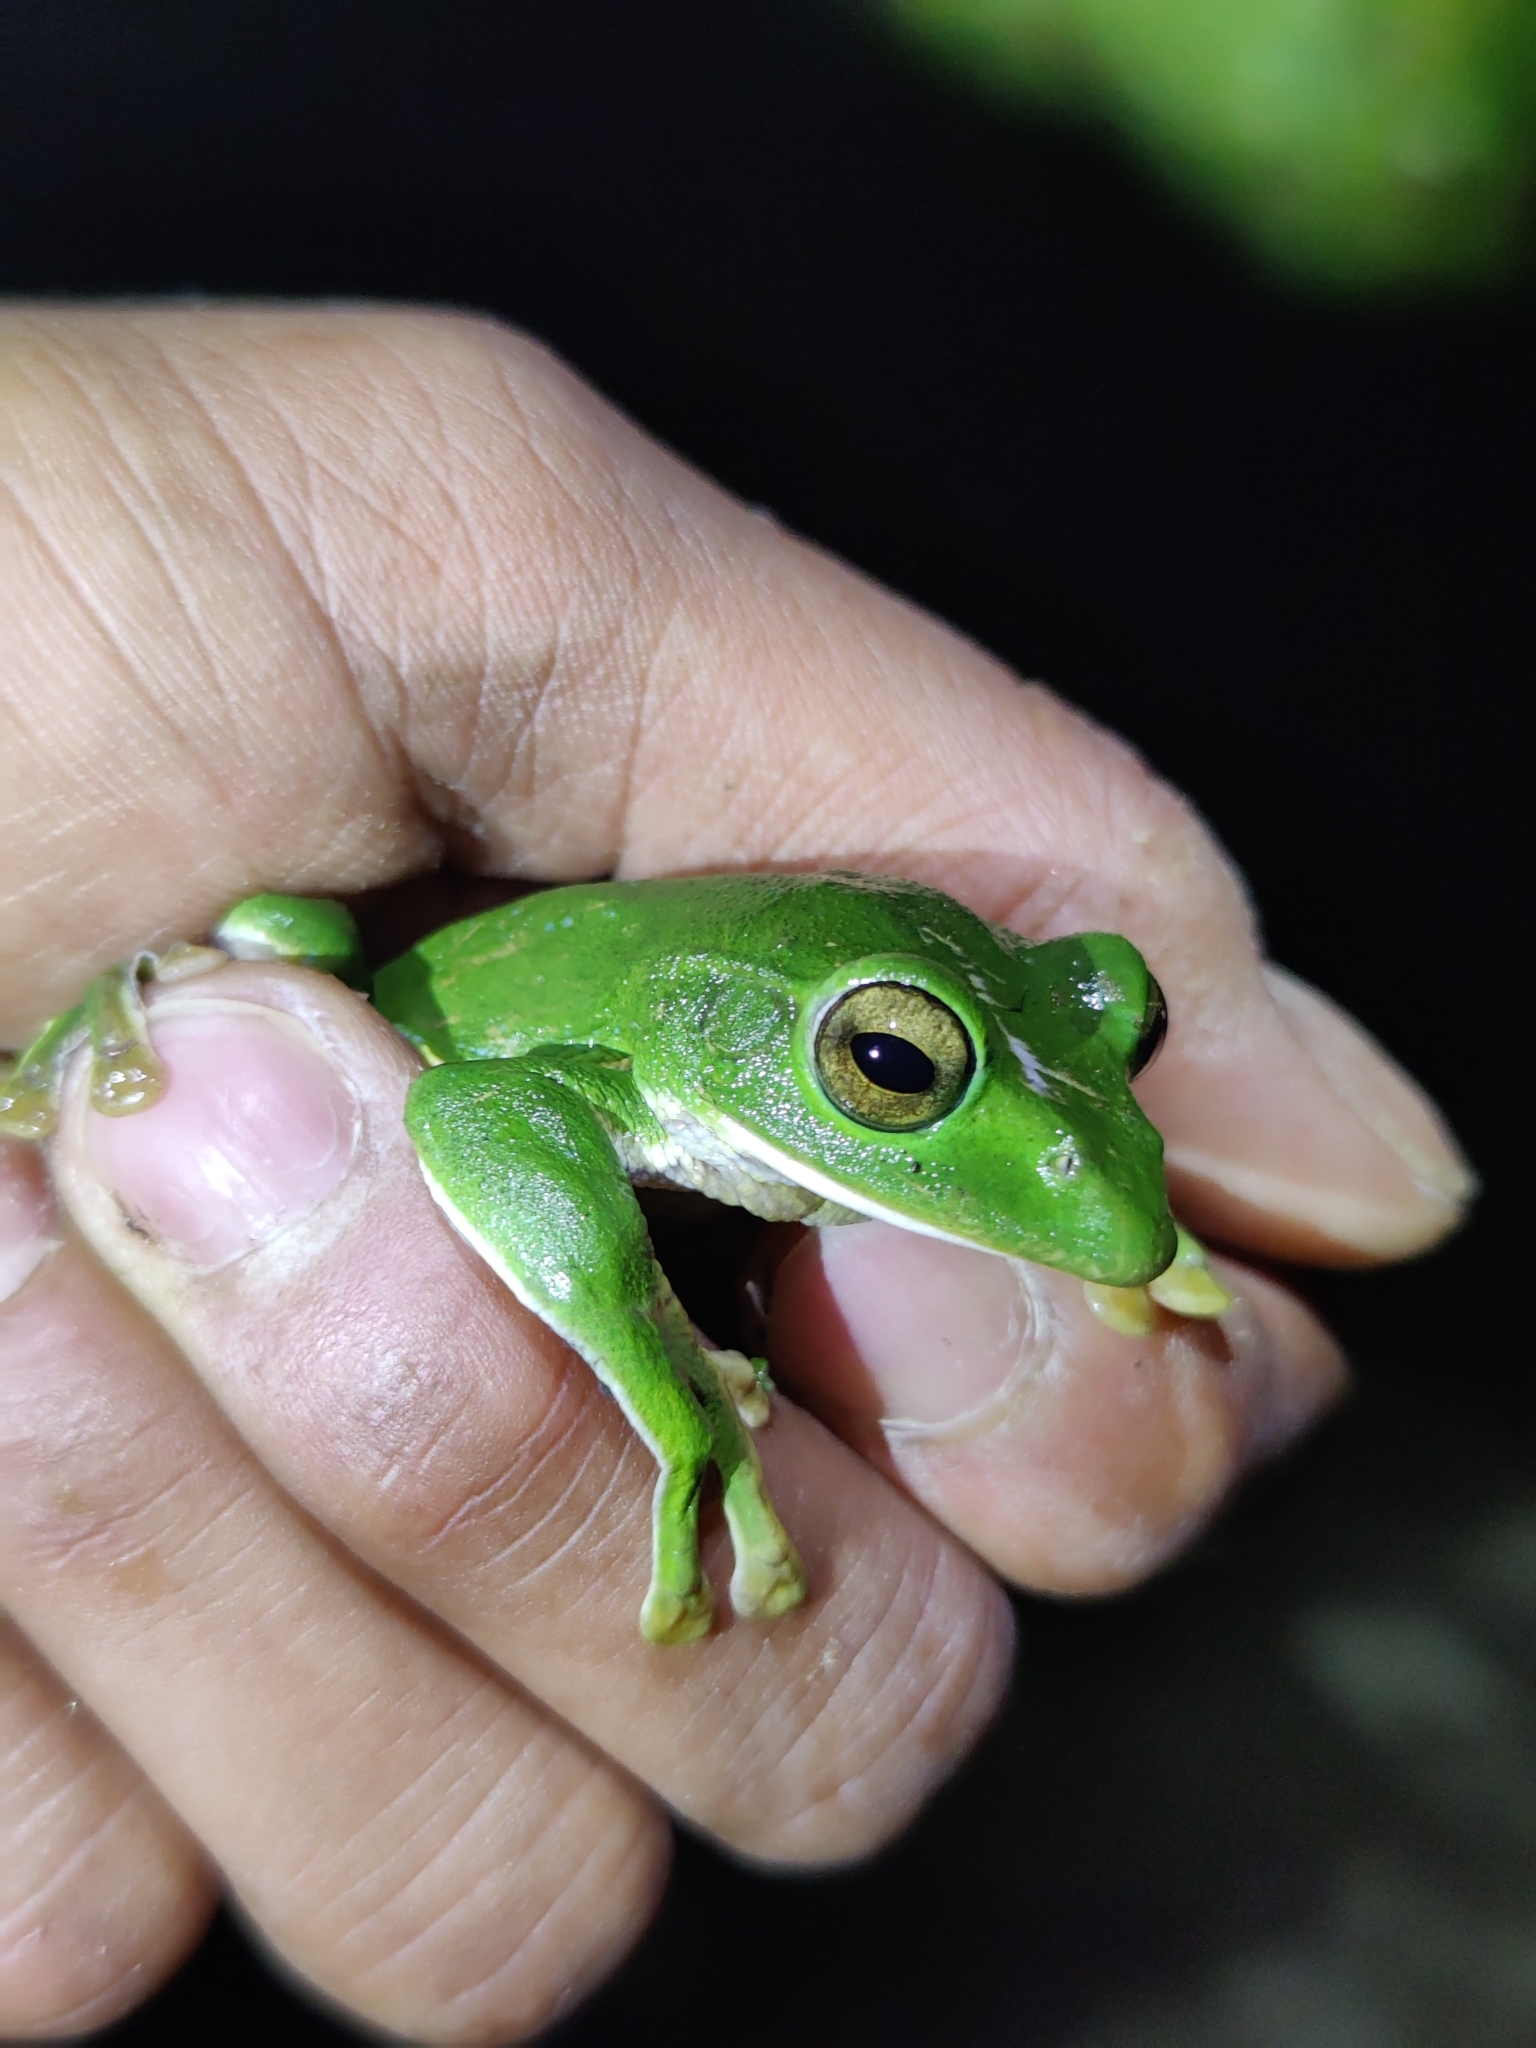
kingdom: Animalia
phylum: Chordata
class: Amphibia
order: Anura
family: Rhacophoridae
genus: Zhangixalus
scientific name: Zhangixalus smaragdinus
